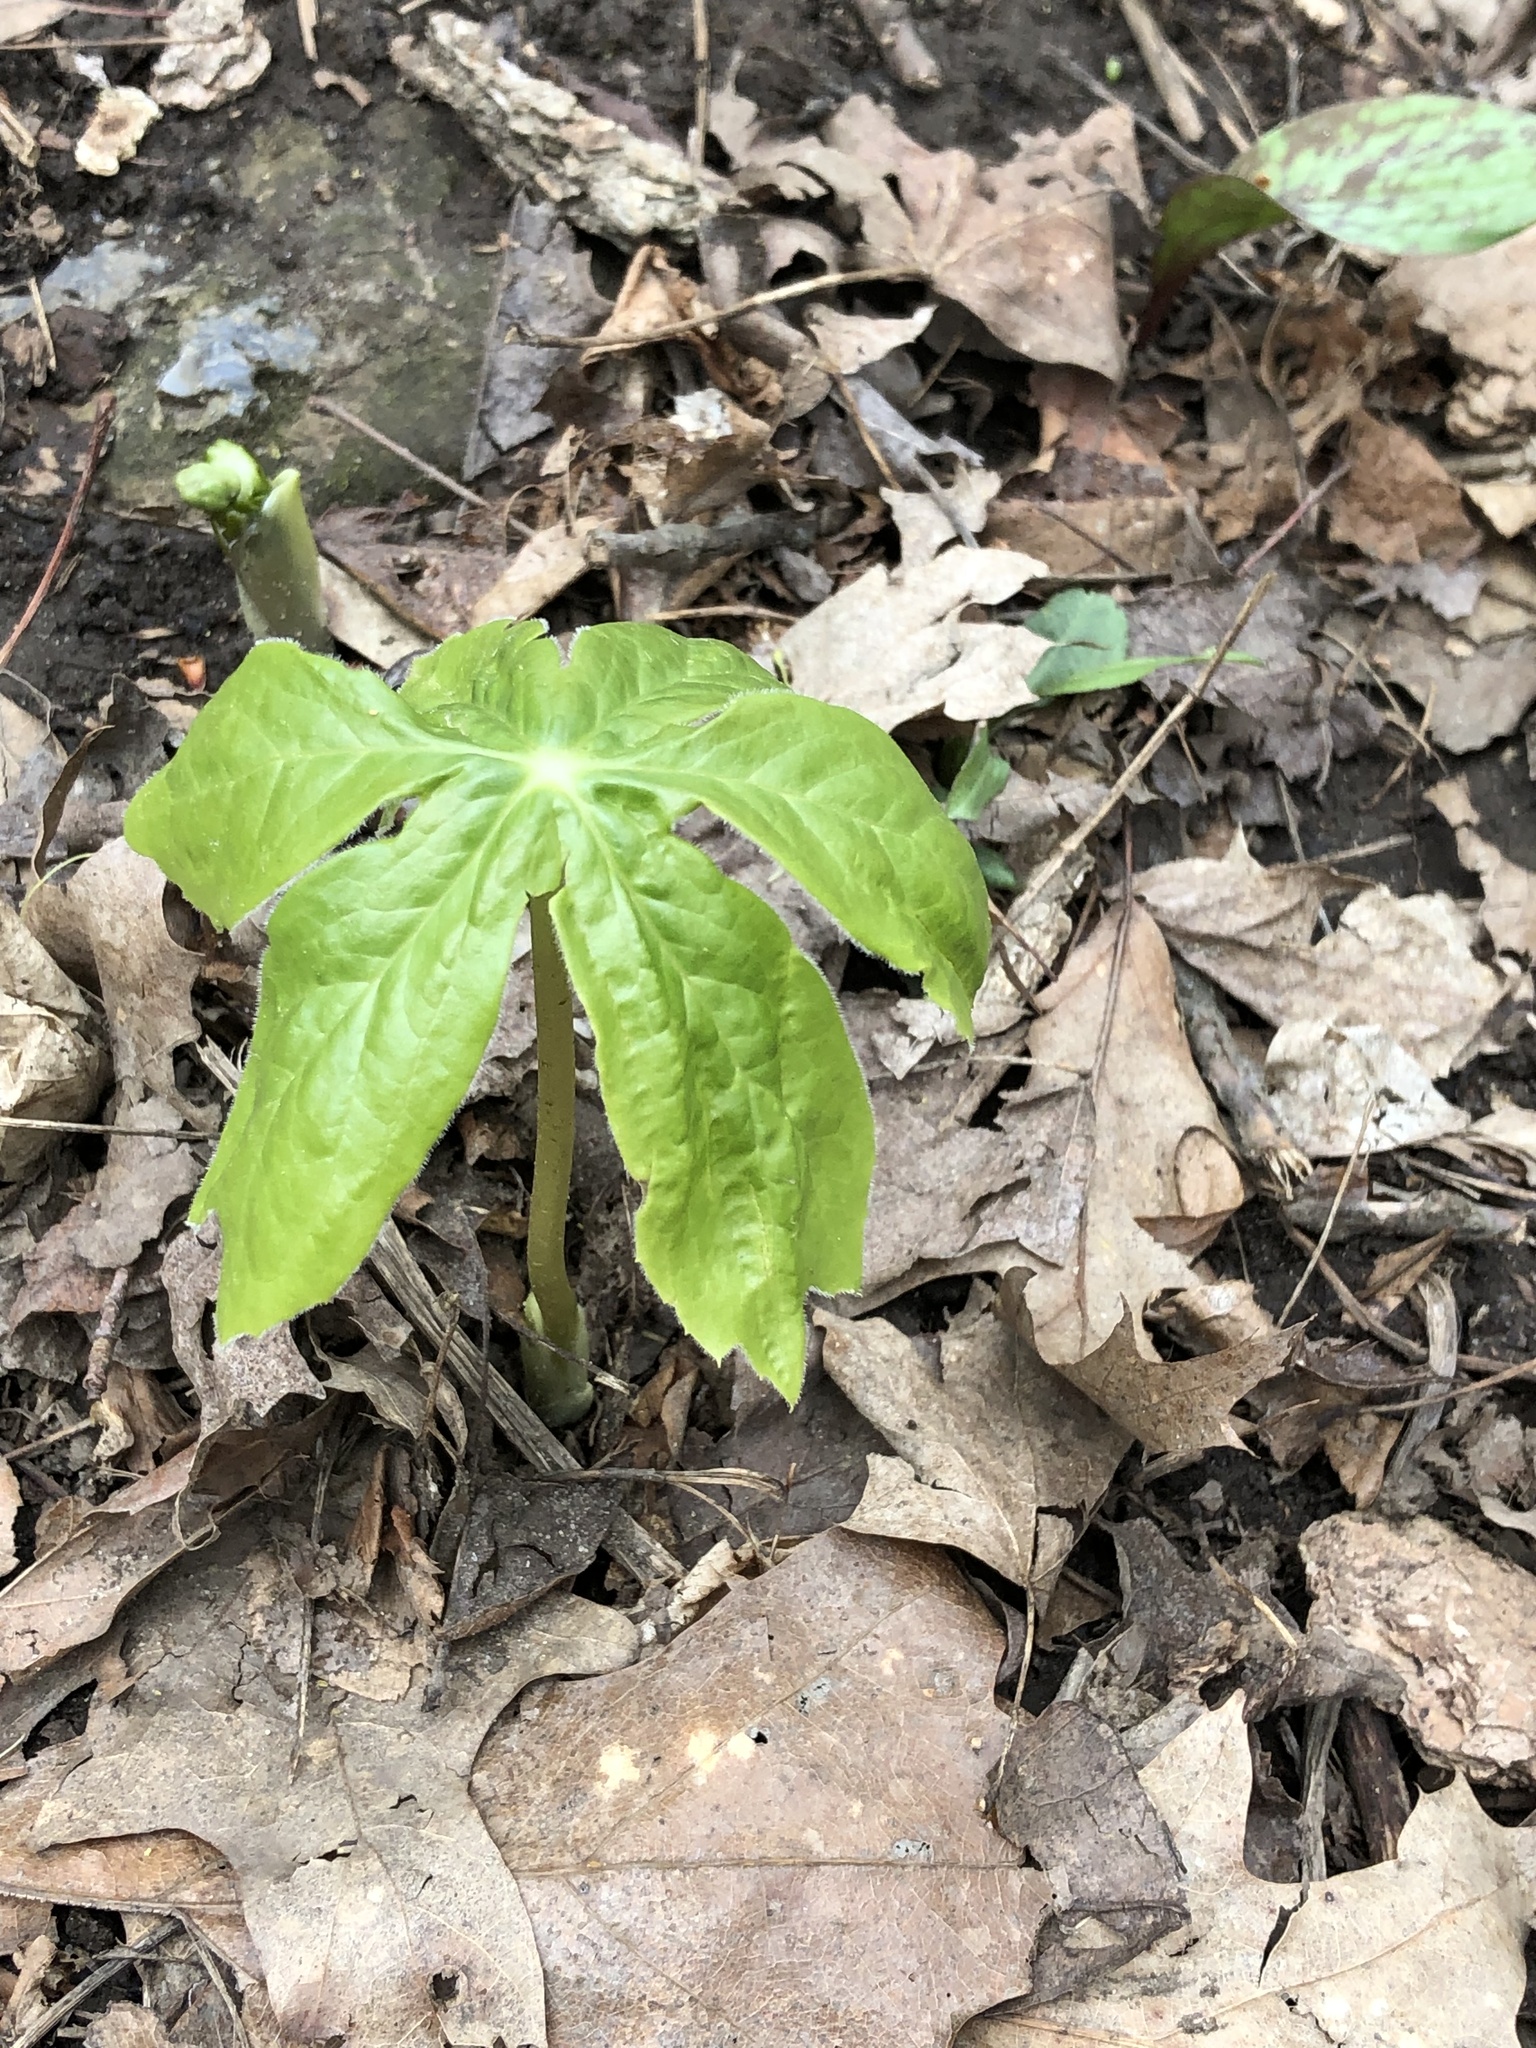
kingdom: Plantae
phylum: Tracheophyta
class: Magnoliopsida
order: Ranunculales
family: Berberidaceae
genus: Podophyllum
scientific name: Podophyllum peltatum
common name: Wild mandrake
